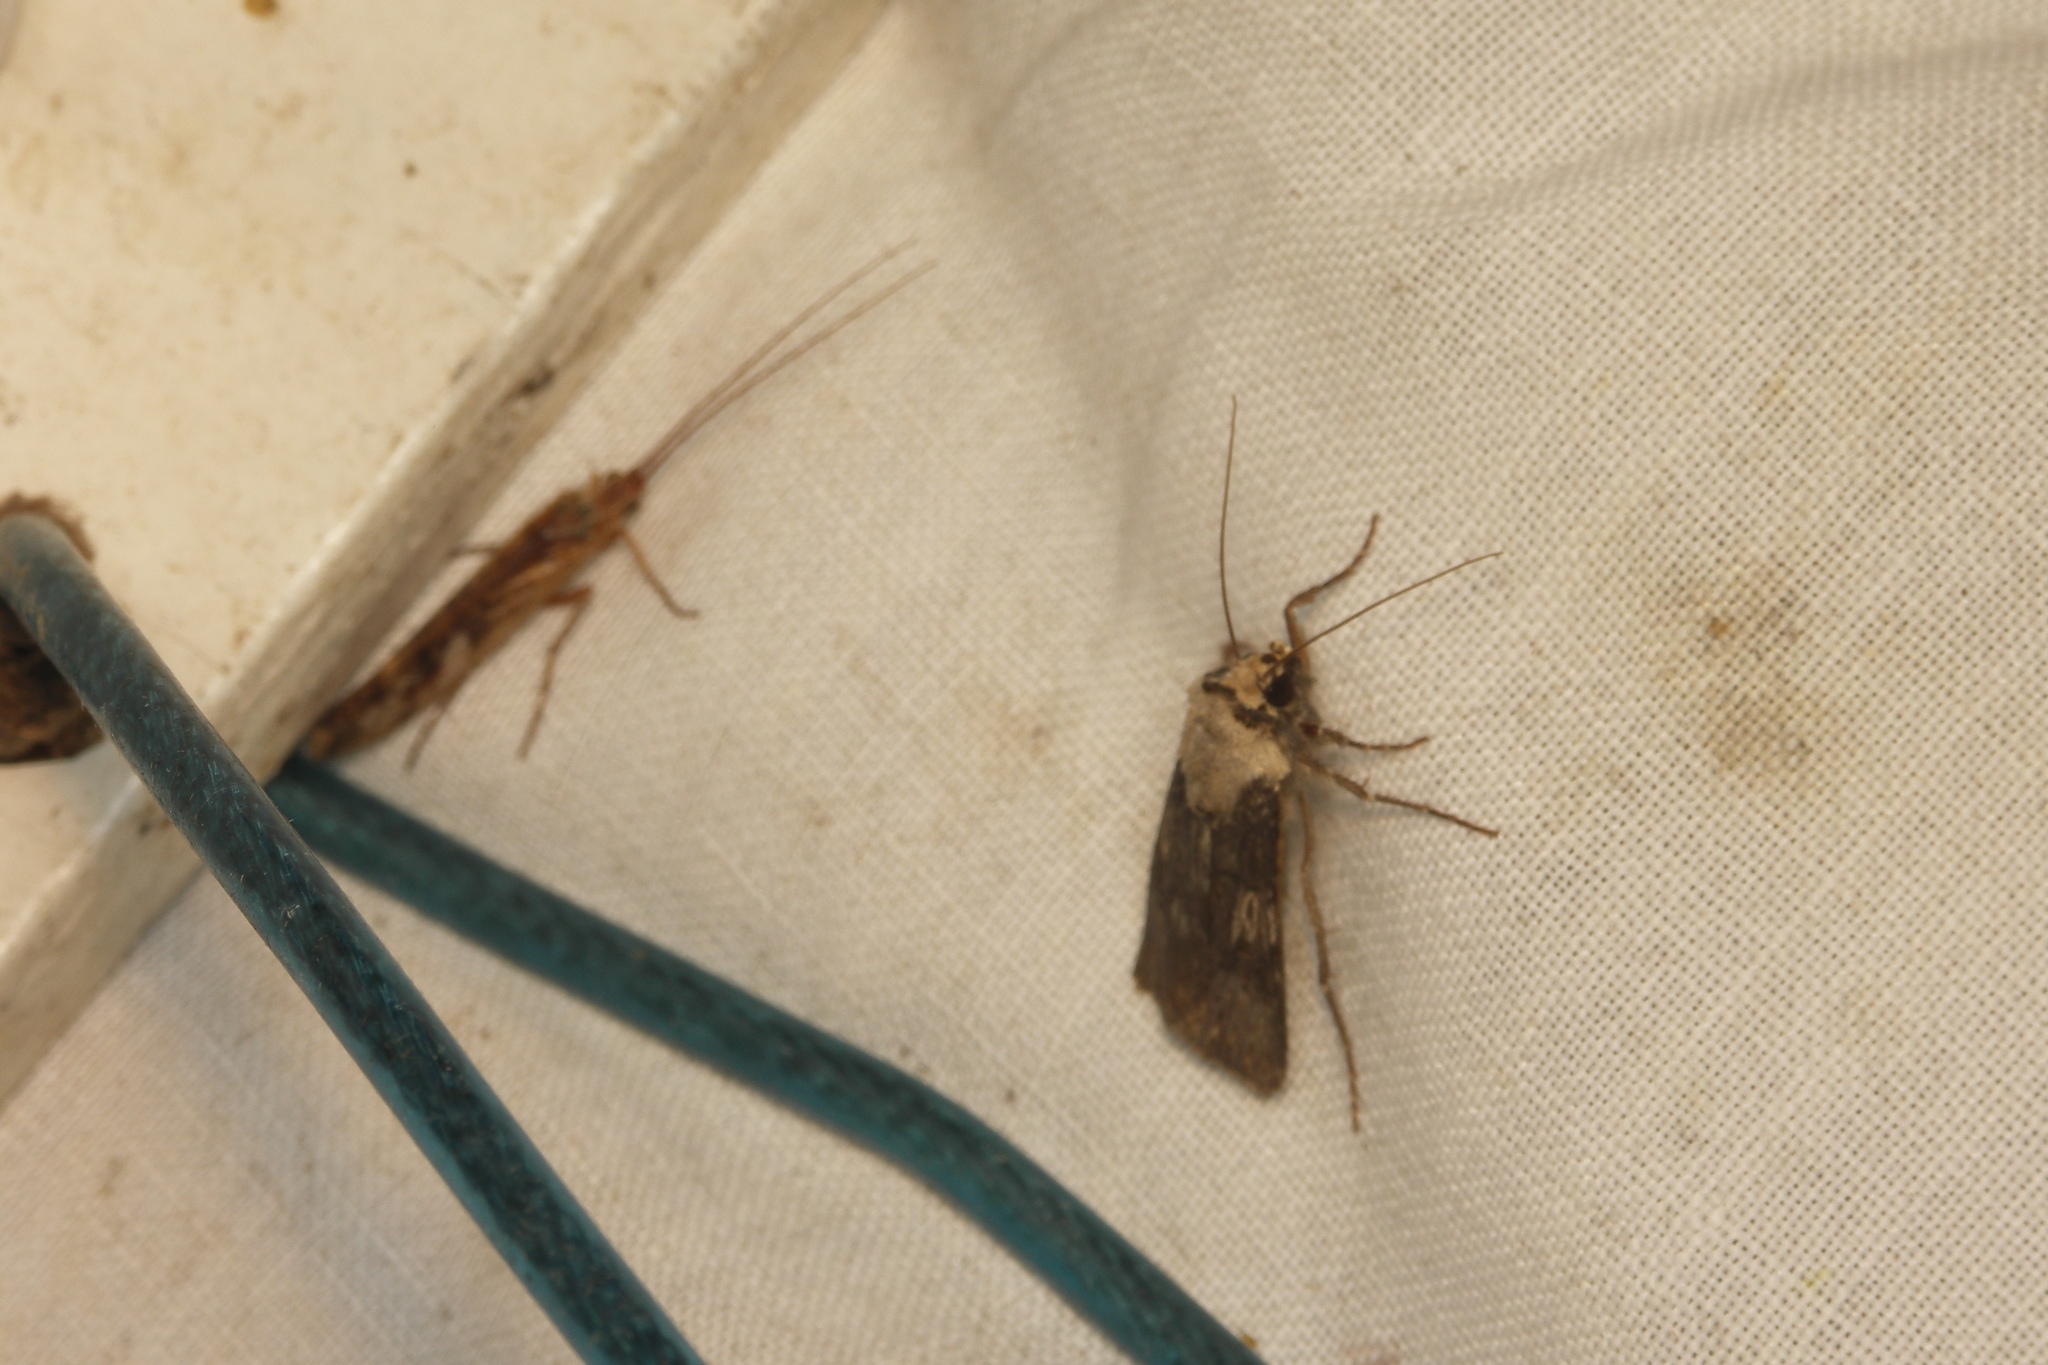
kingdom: Animalia
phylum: Arthropoda
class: Insecta
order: Lepidoptera
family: Noctuidae
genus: Agrotis
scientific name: Agrotis puta
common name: Shuttle-shaped dart
